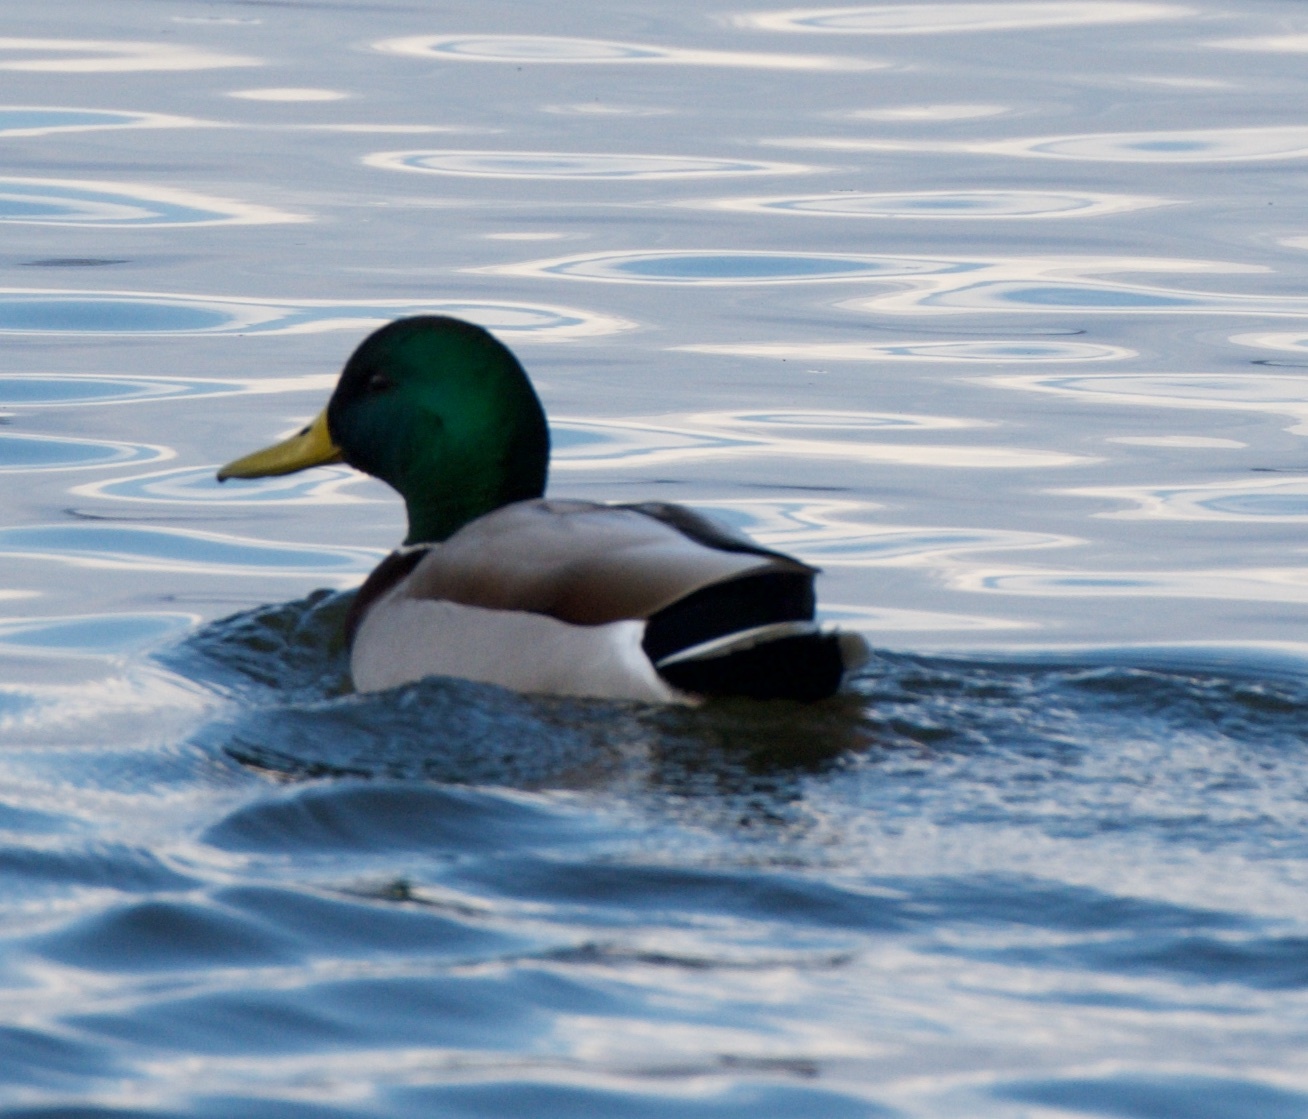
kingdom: Animalia
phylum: Chordata
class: Aves
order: Anseriformes
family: Anatidae
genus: Anas
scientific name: Anas platyrhynchos
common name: Mallard
